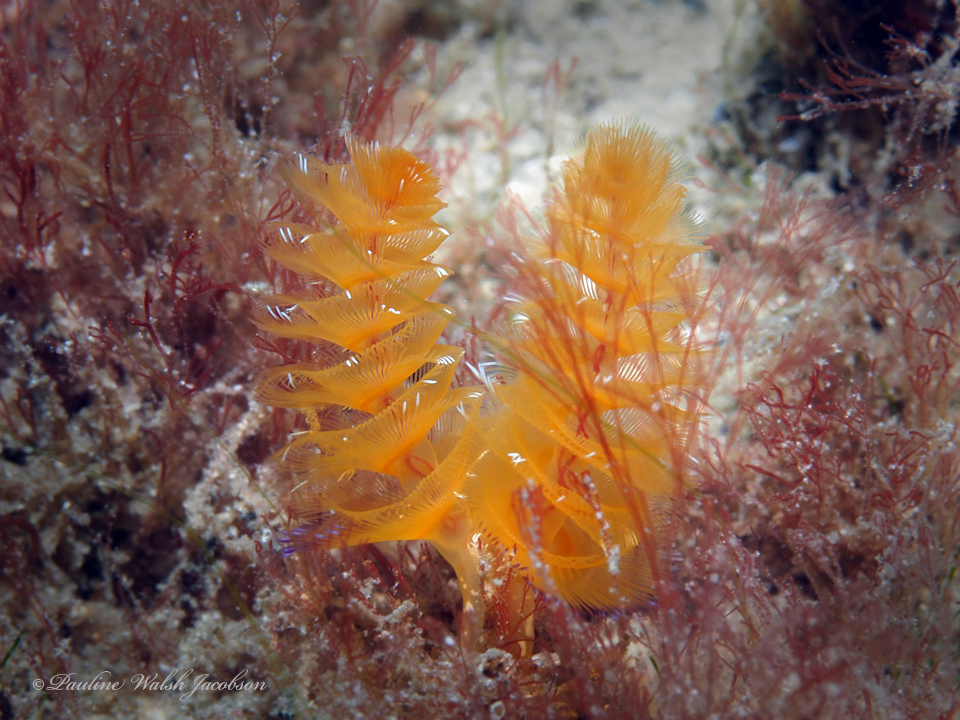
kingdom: Animalia
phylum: Phoronida
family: Phoronidae
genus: Phoronopsis
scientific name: Phoronopsis californica
